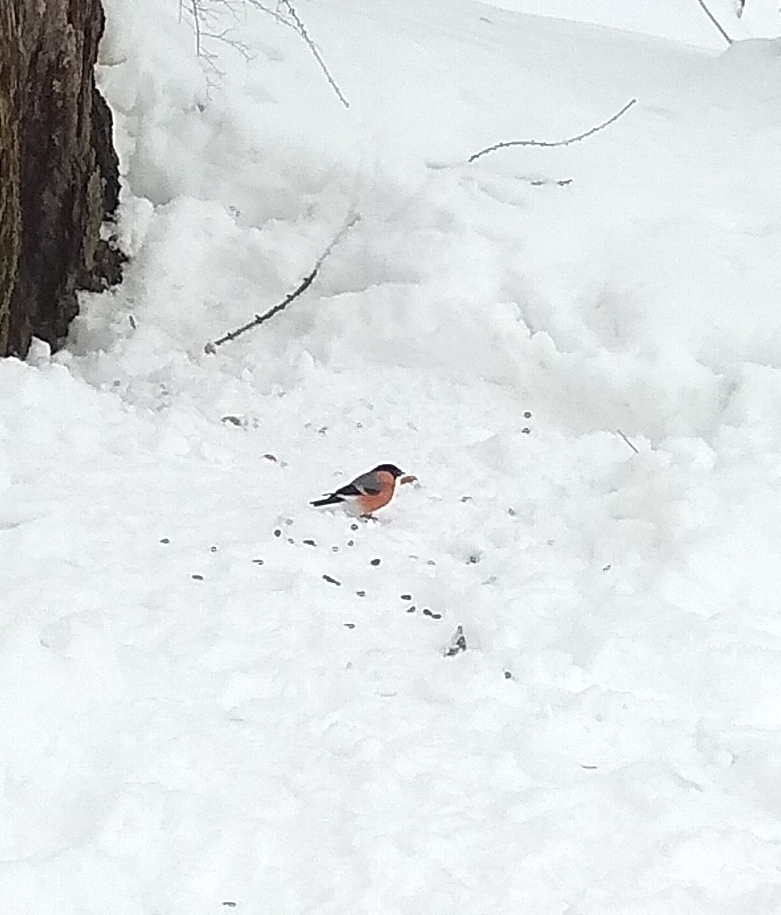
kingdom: Animalia
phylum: Chordata
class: Aves
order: Passeriformes
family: Fringillidae
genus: Pyrrhula
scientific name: Pyrrhula pyrrhula
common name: Eurasian bullfinch
